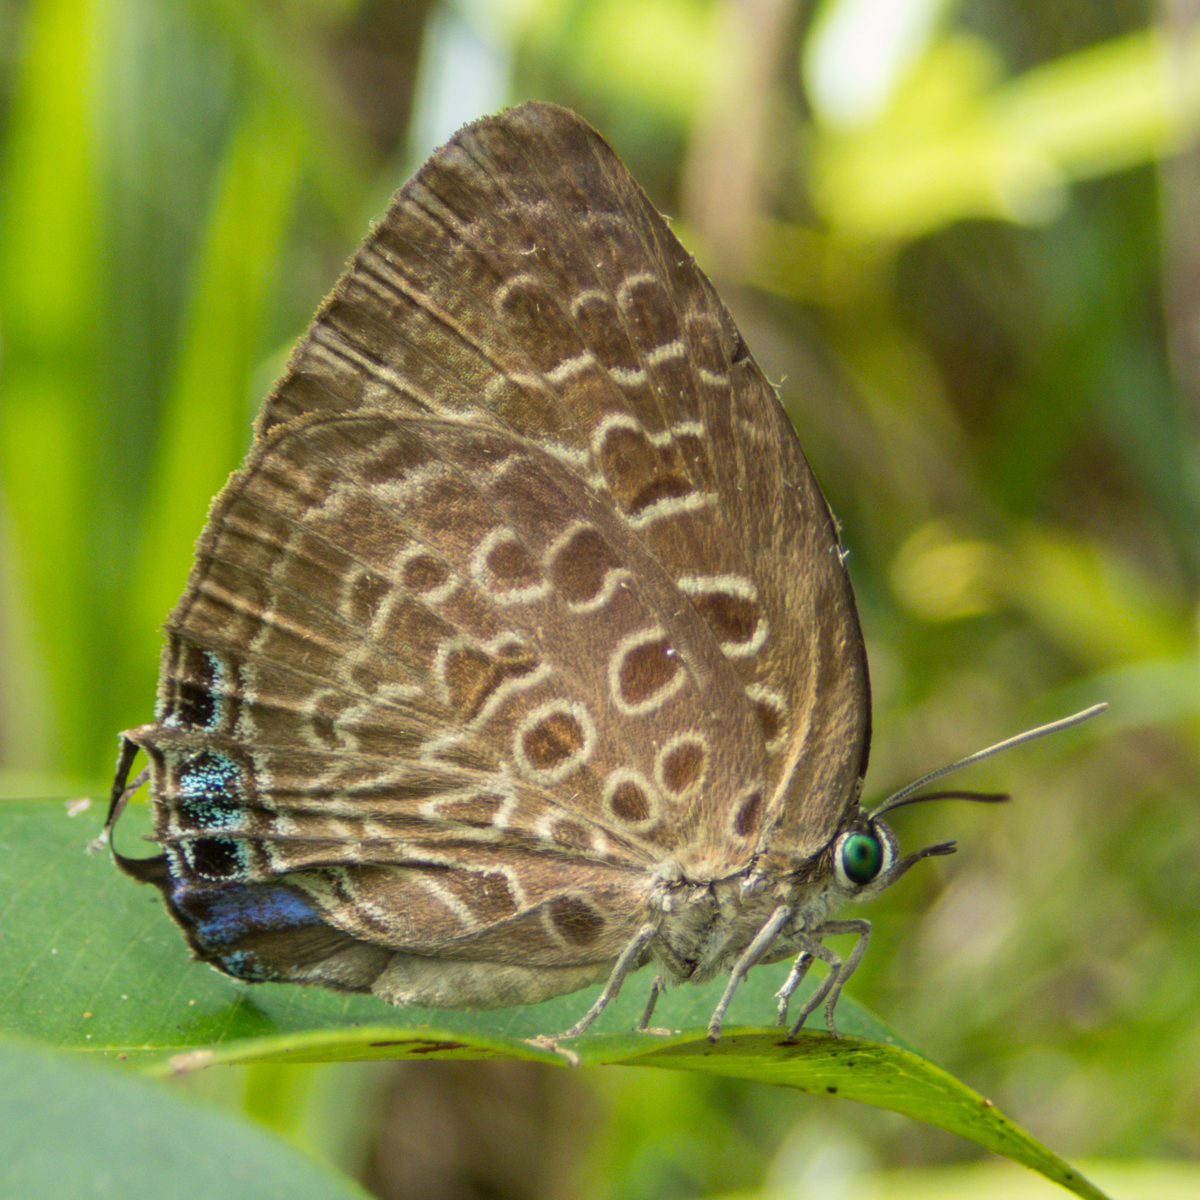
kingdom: Animalia
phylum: Arthropoda
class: Insecta
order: Lepidoptera
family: Lycaenidae
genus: Arhopala
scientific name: Arhopala camdana
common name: Moonstone oakblue
